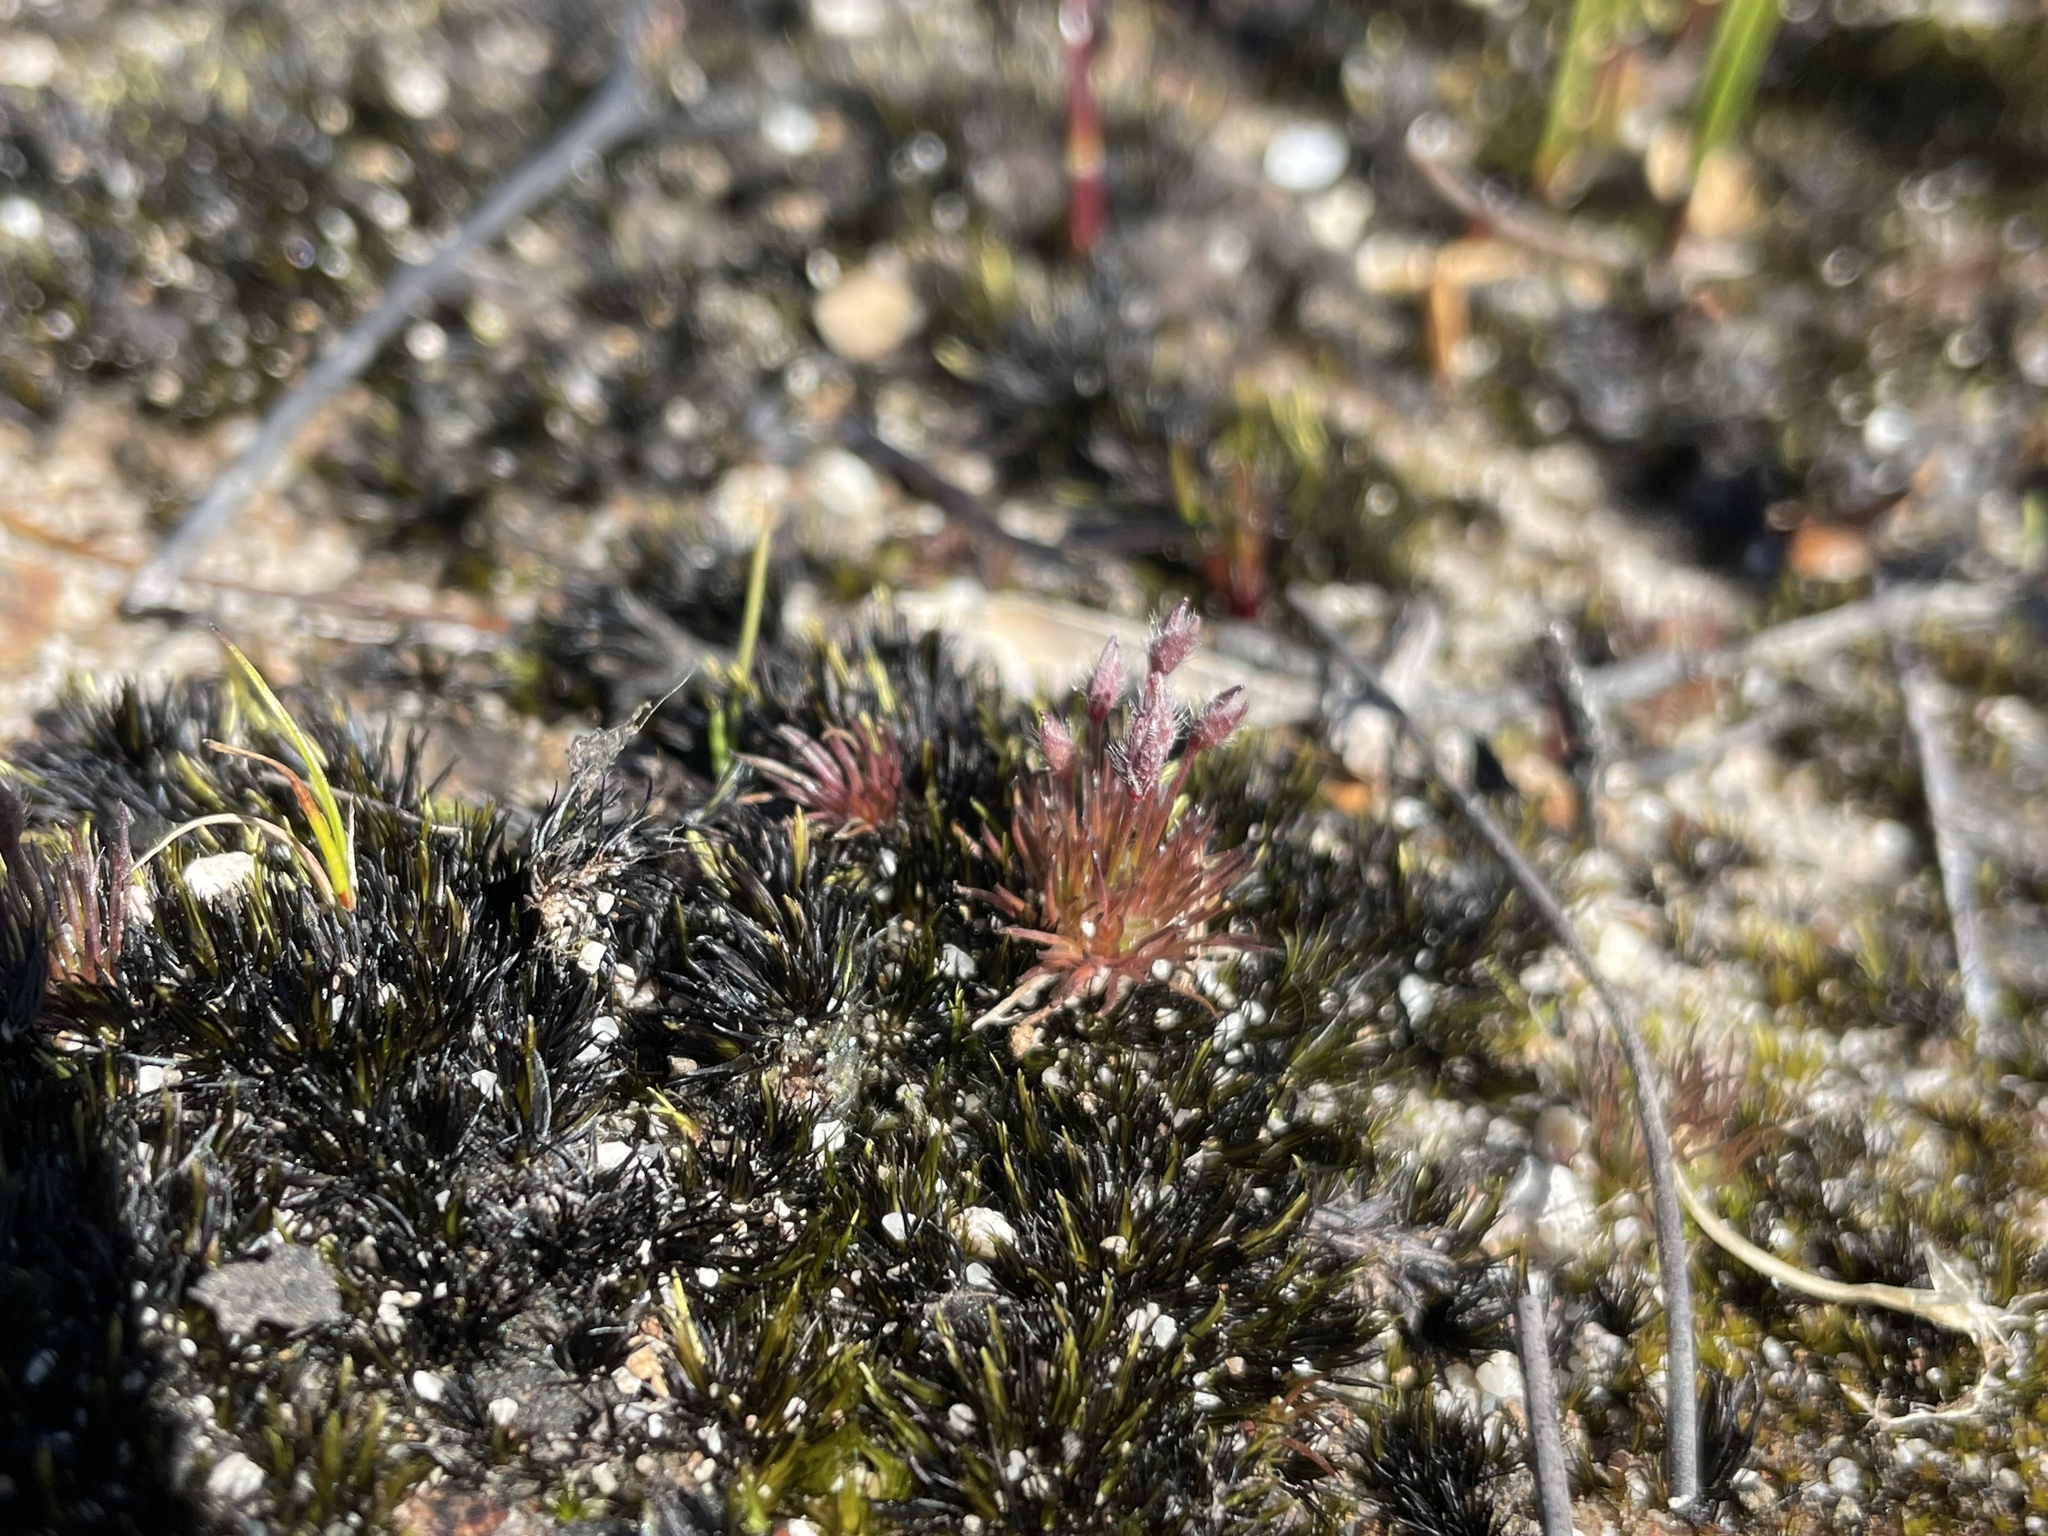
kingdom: Plantae
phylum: Tracheophyta
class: Liliopsida
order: Poales
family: Restionaceae
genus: Centrolepis
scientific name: Centrolepis strigosa
